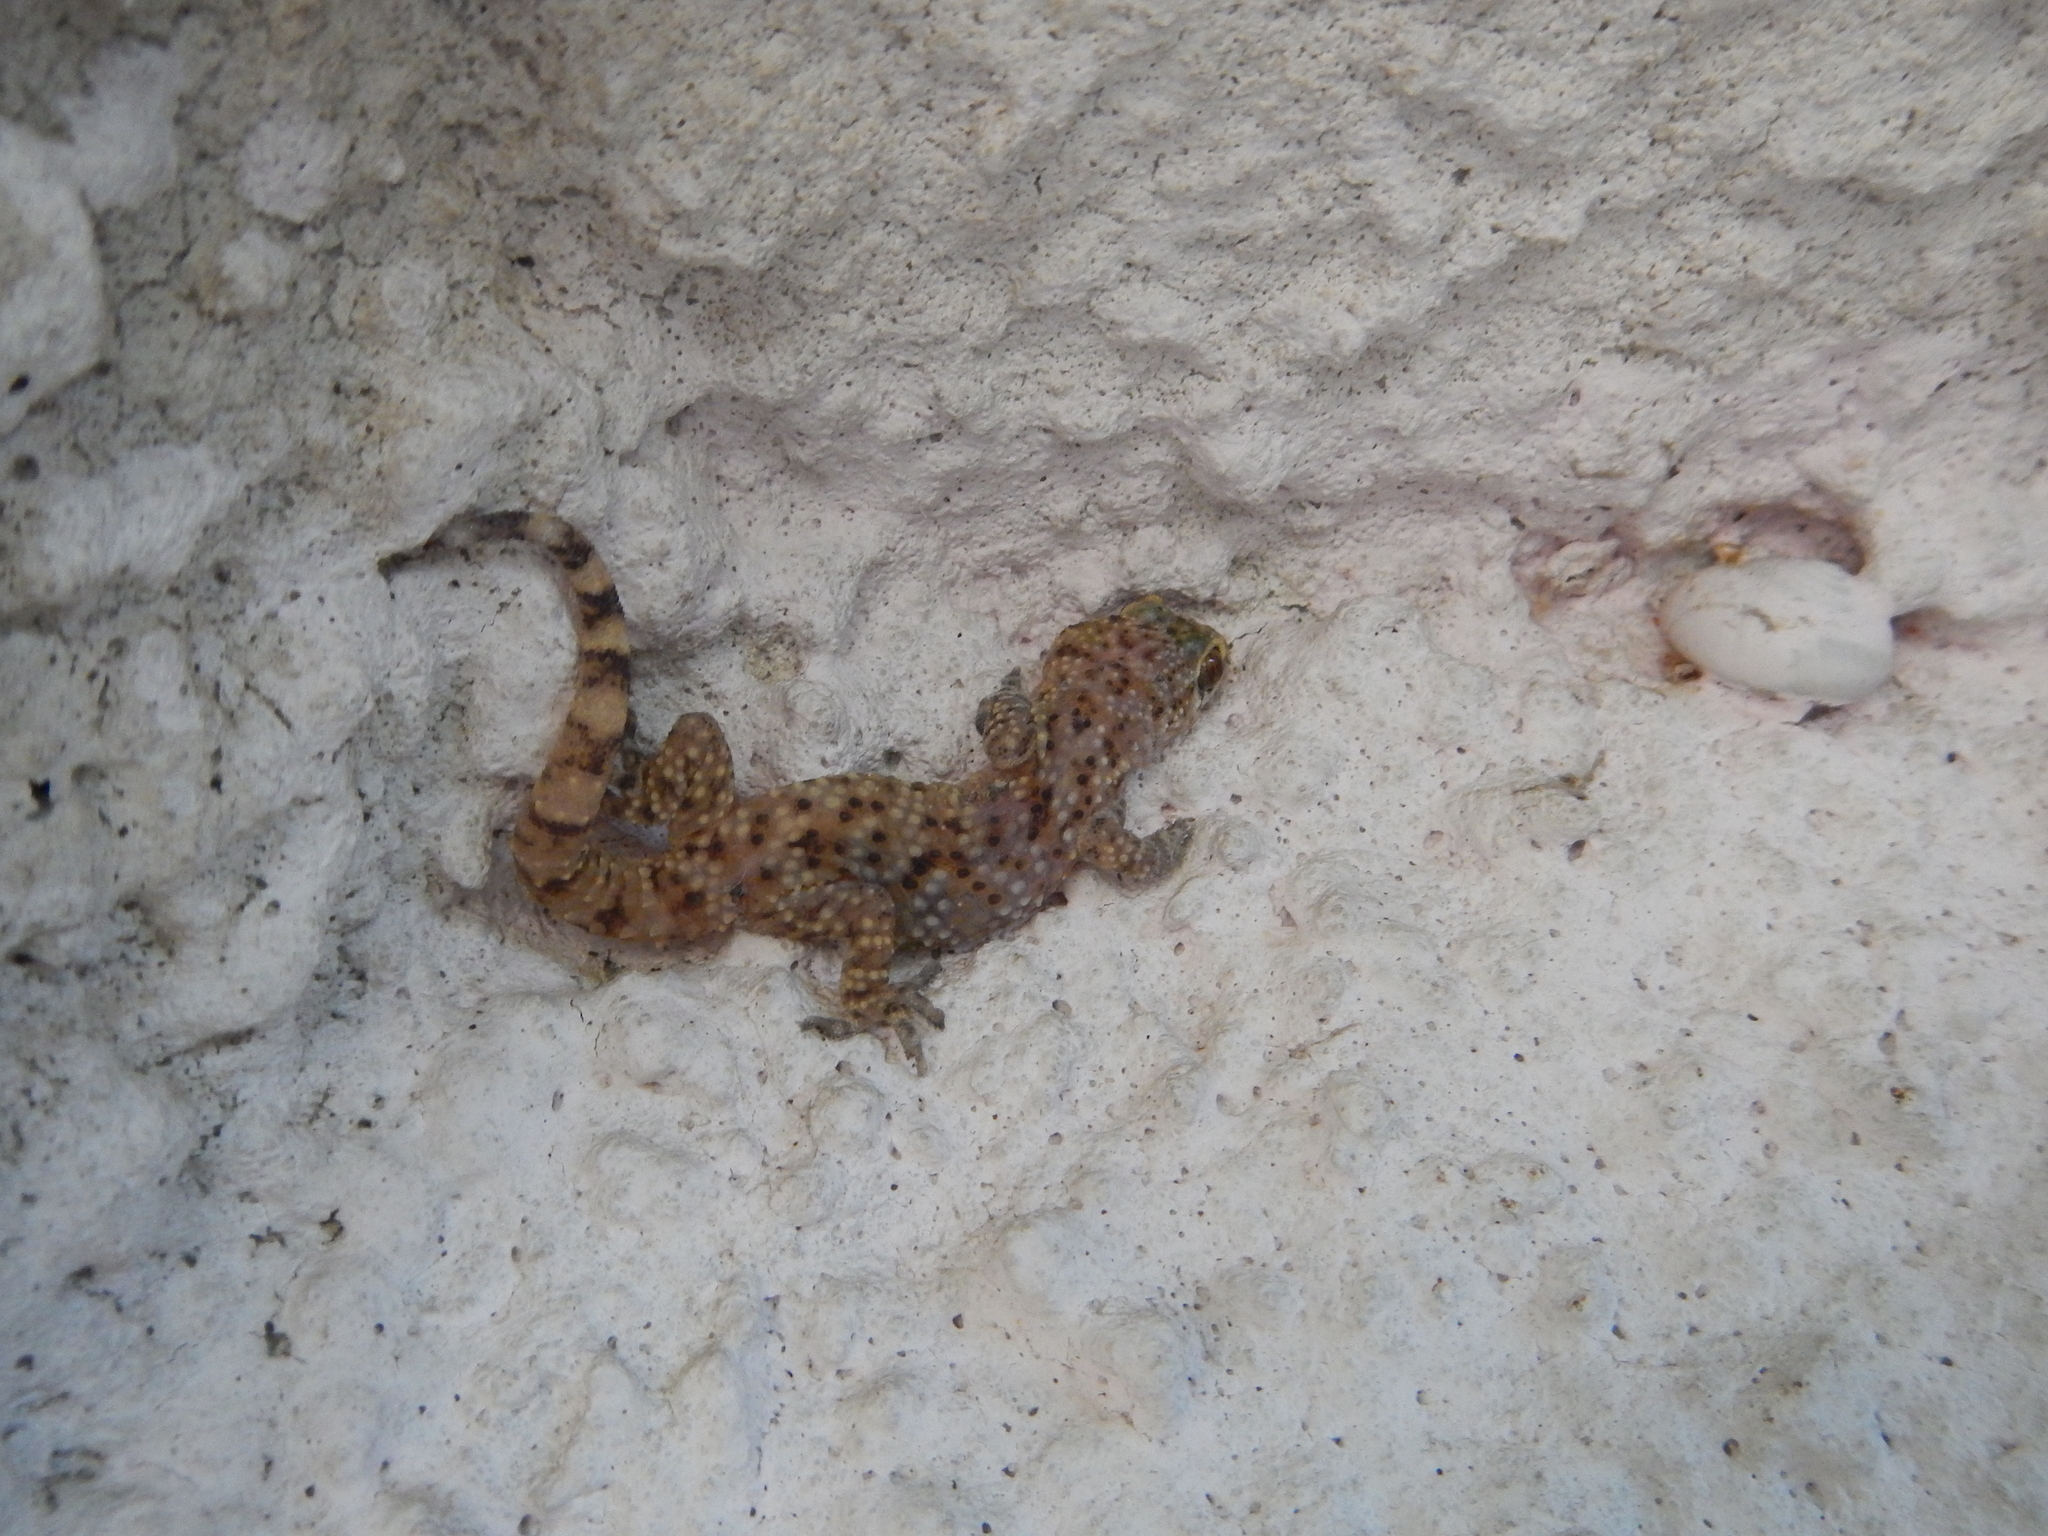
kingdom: Animalia
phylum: Chordata
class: Squamata
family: Gekkonidae
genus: Hemidactylus
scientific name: Hemidactylus turcicus
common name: Turkish gecko
